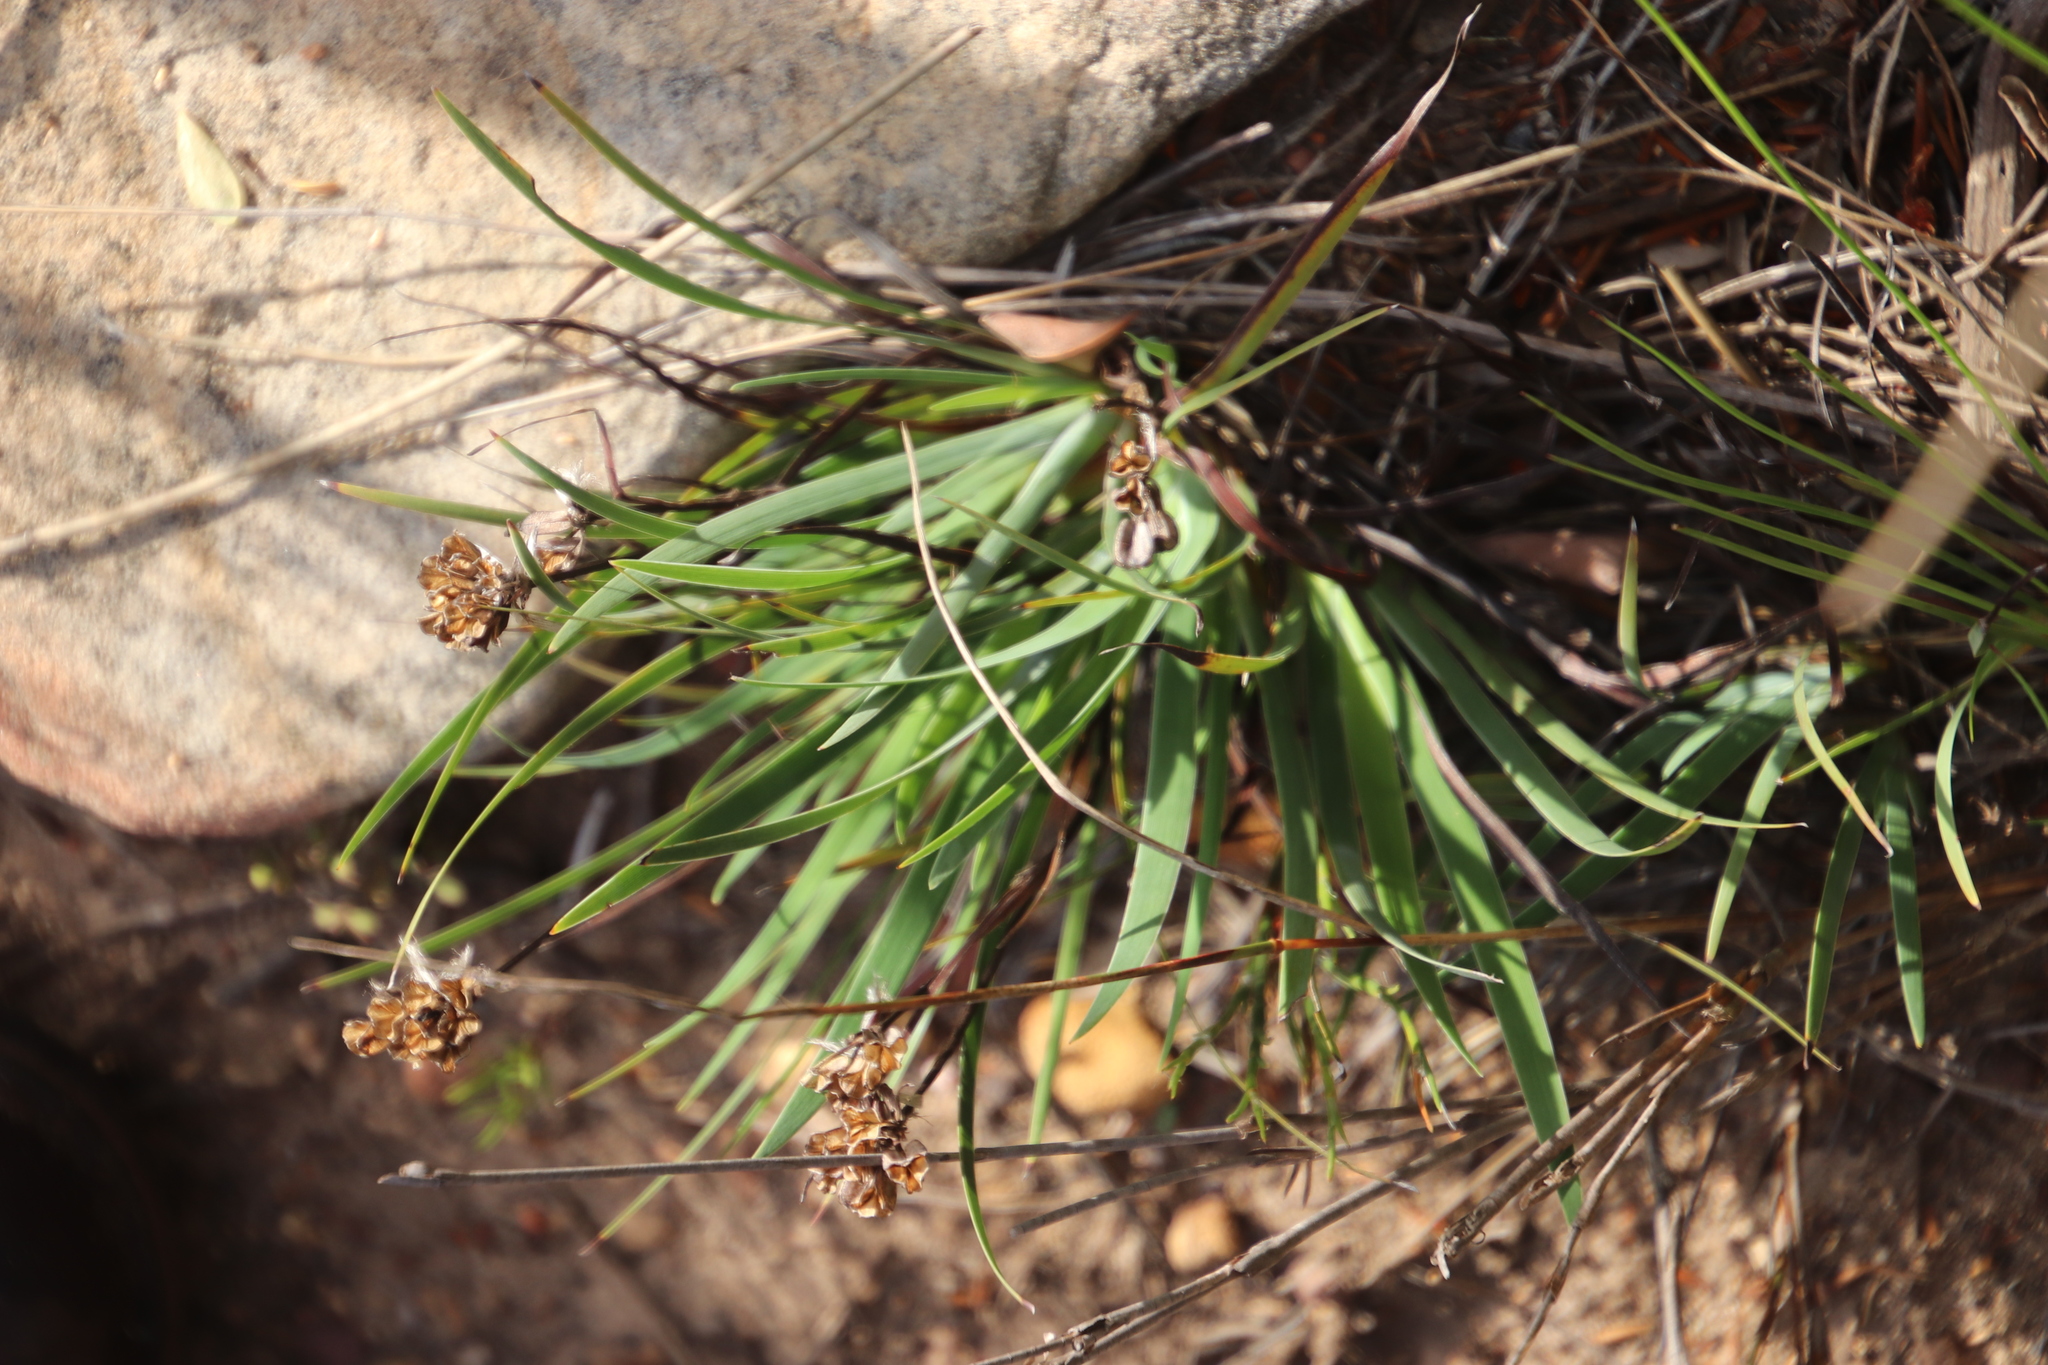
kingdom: Plantae
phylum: Tracheophyta
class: Liliopsida
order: Asparagales
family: Iridaceae
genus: Aristea
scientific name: Aristea africana
